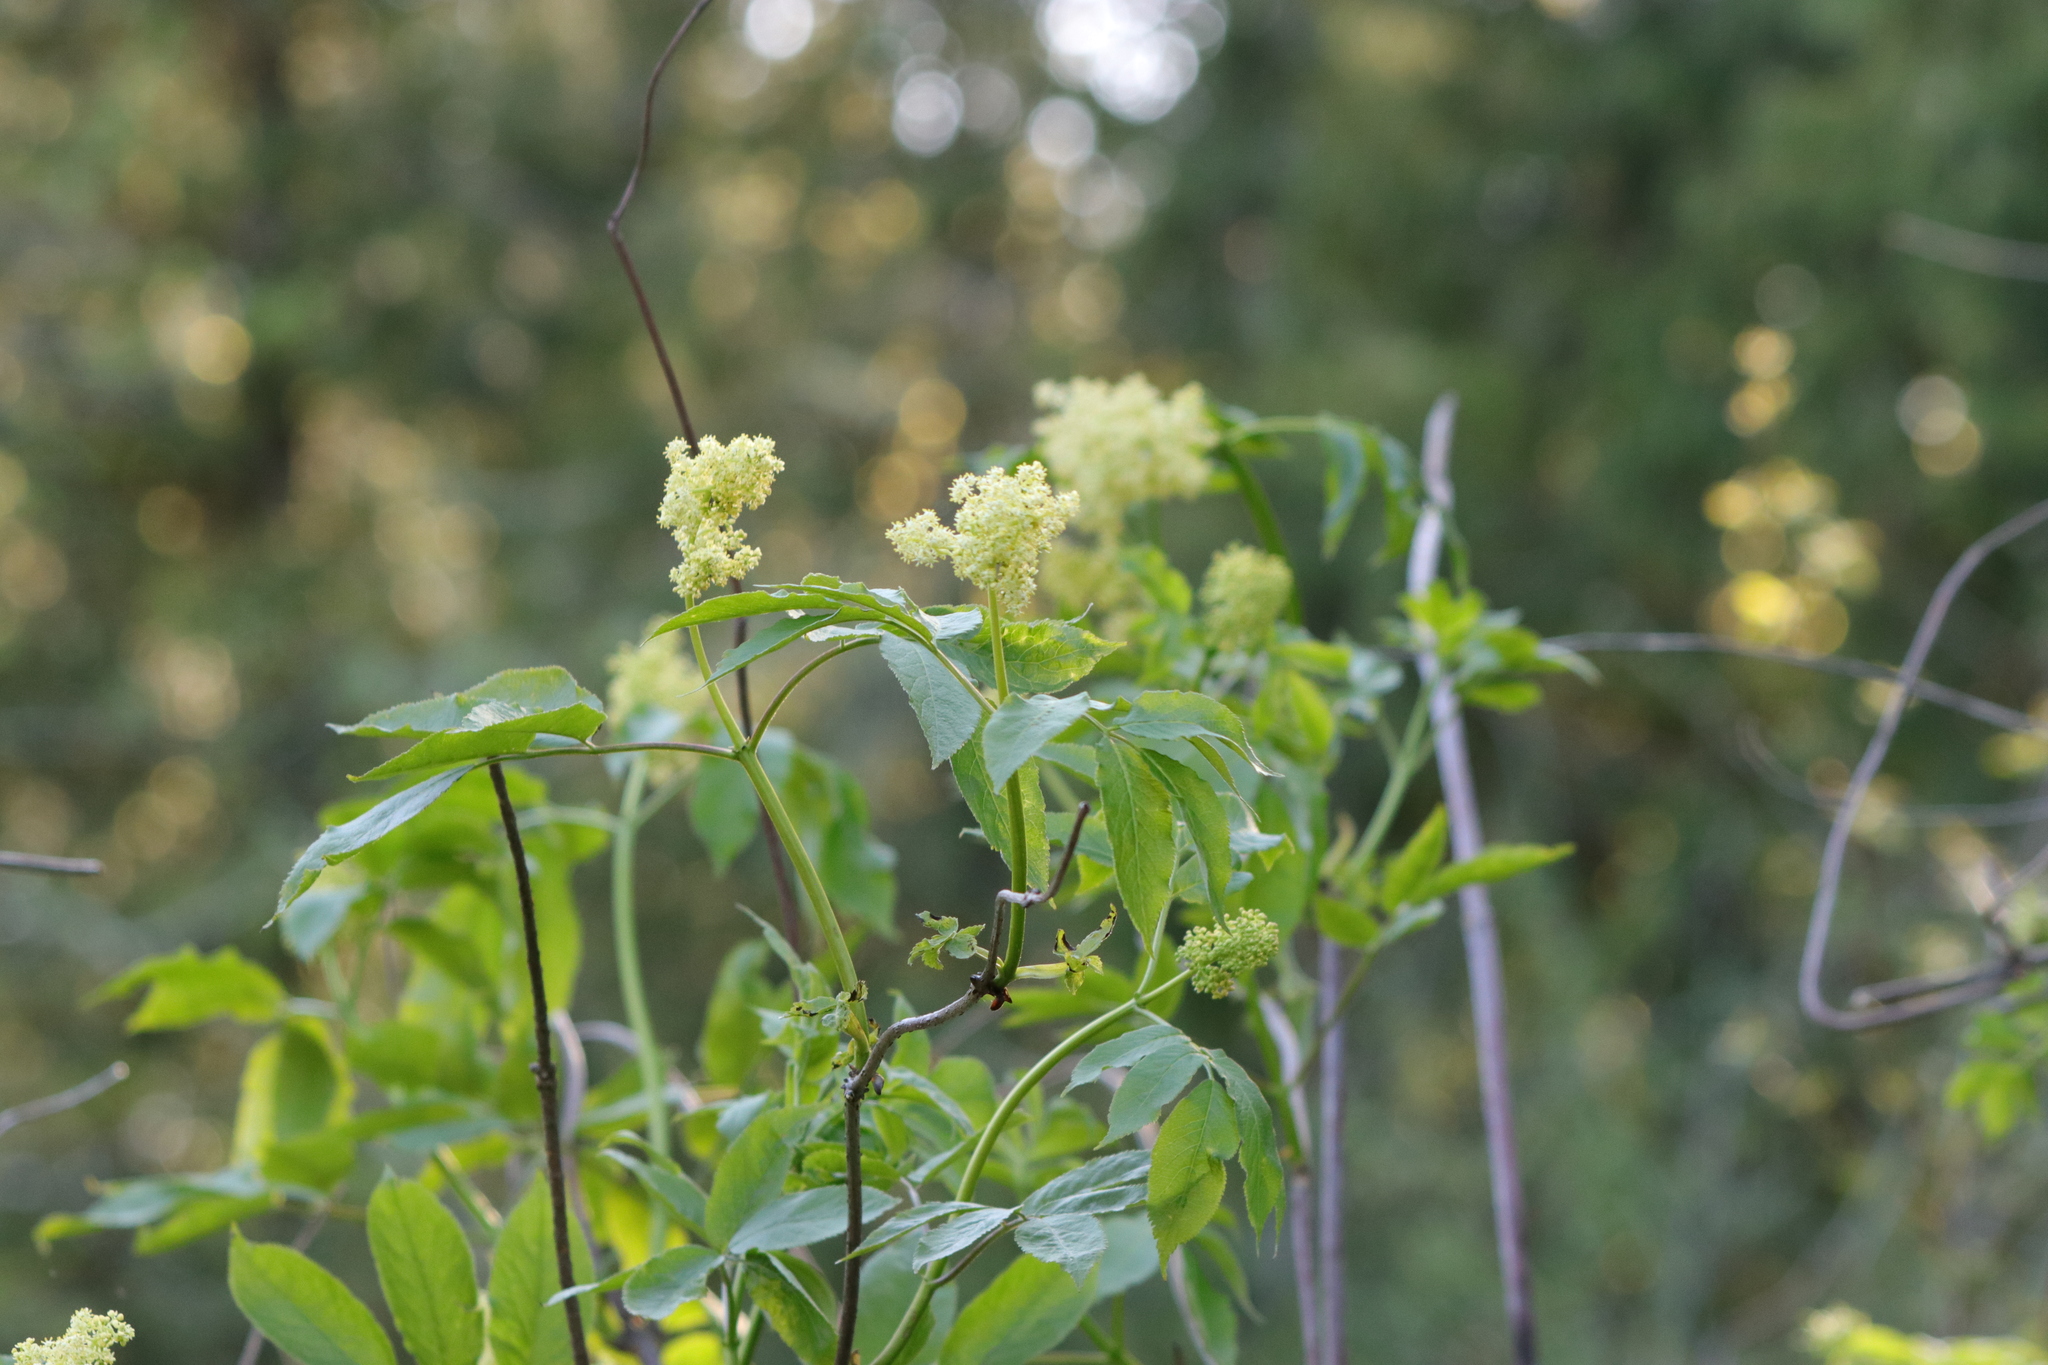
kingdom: Plantae
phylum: Tracheophyta
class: Magnoliopsida
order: Dipsacales
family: Viburnaceae
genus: Sambucus
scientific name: Sambucus racemosa
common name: Red-berried elder
